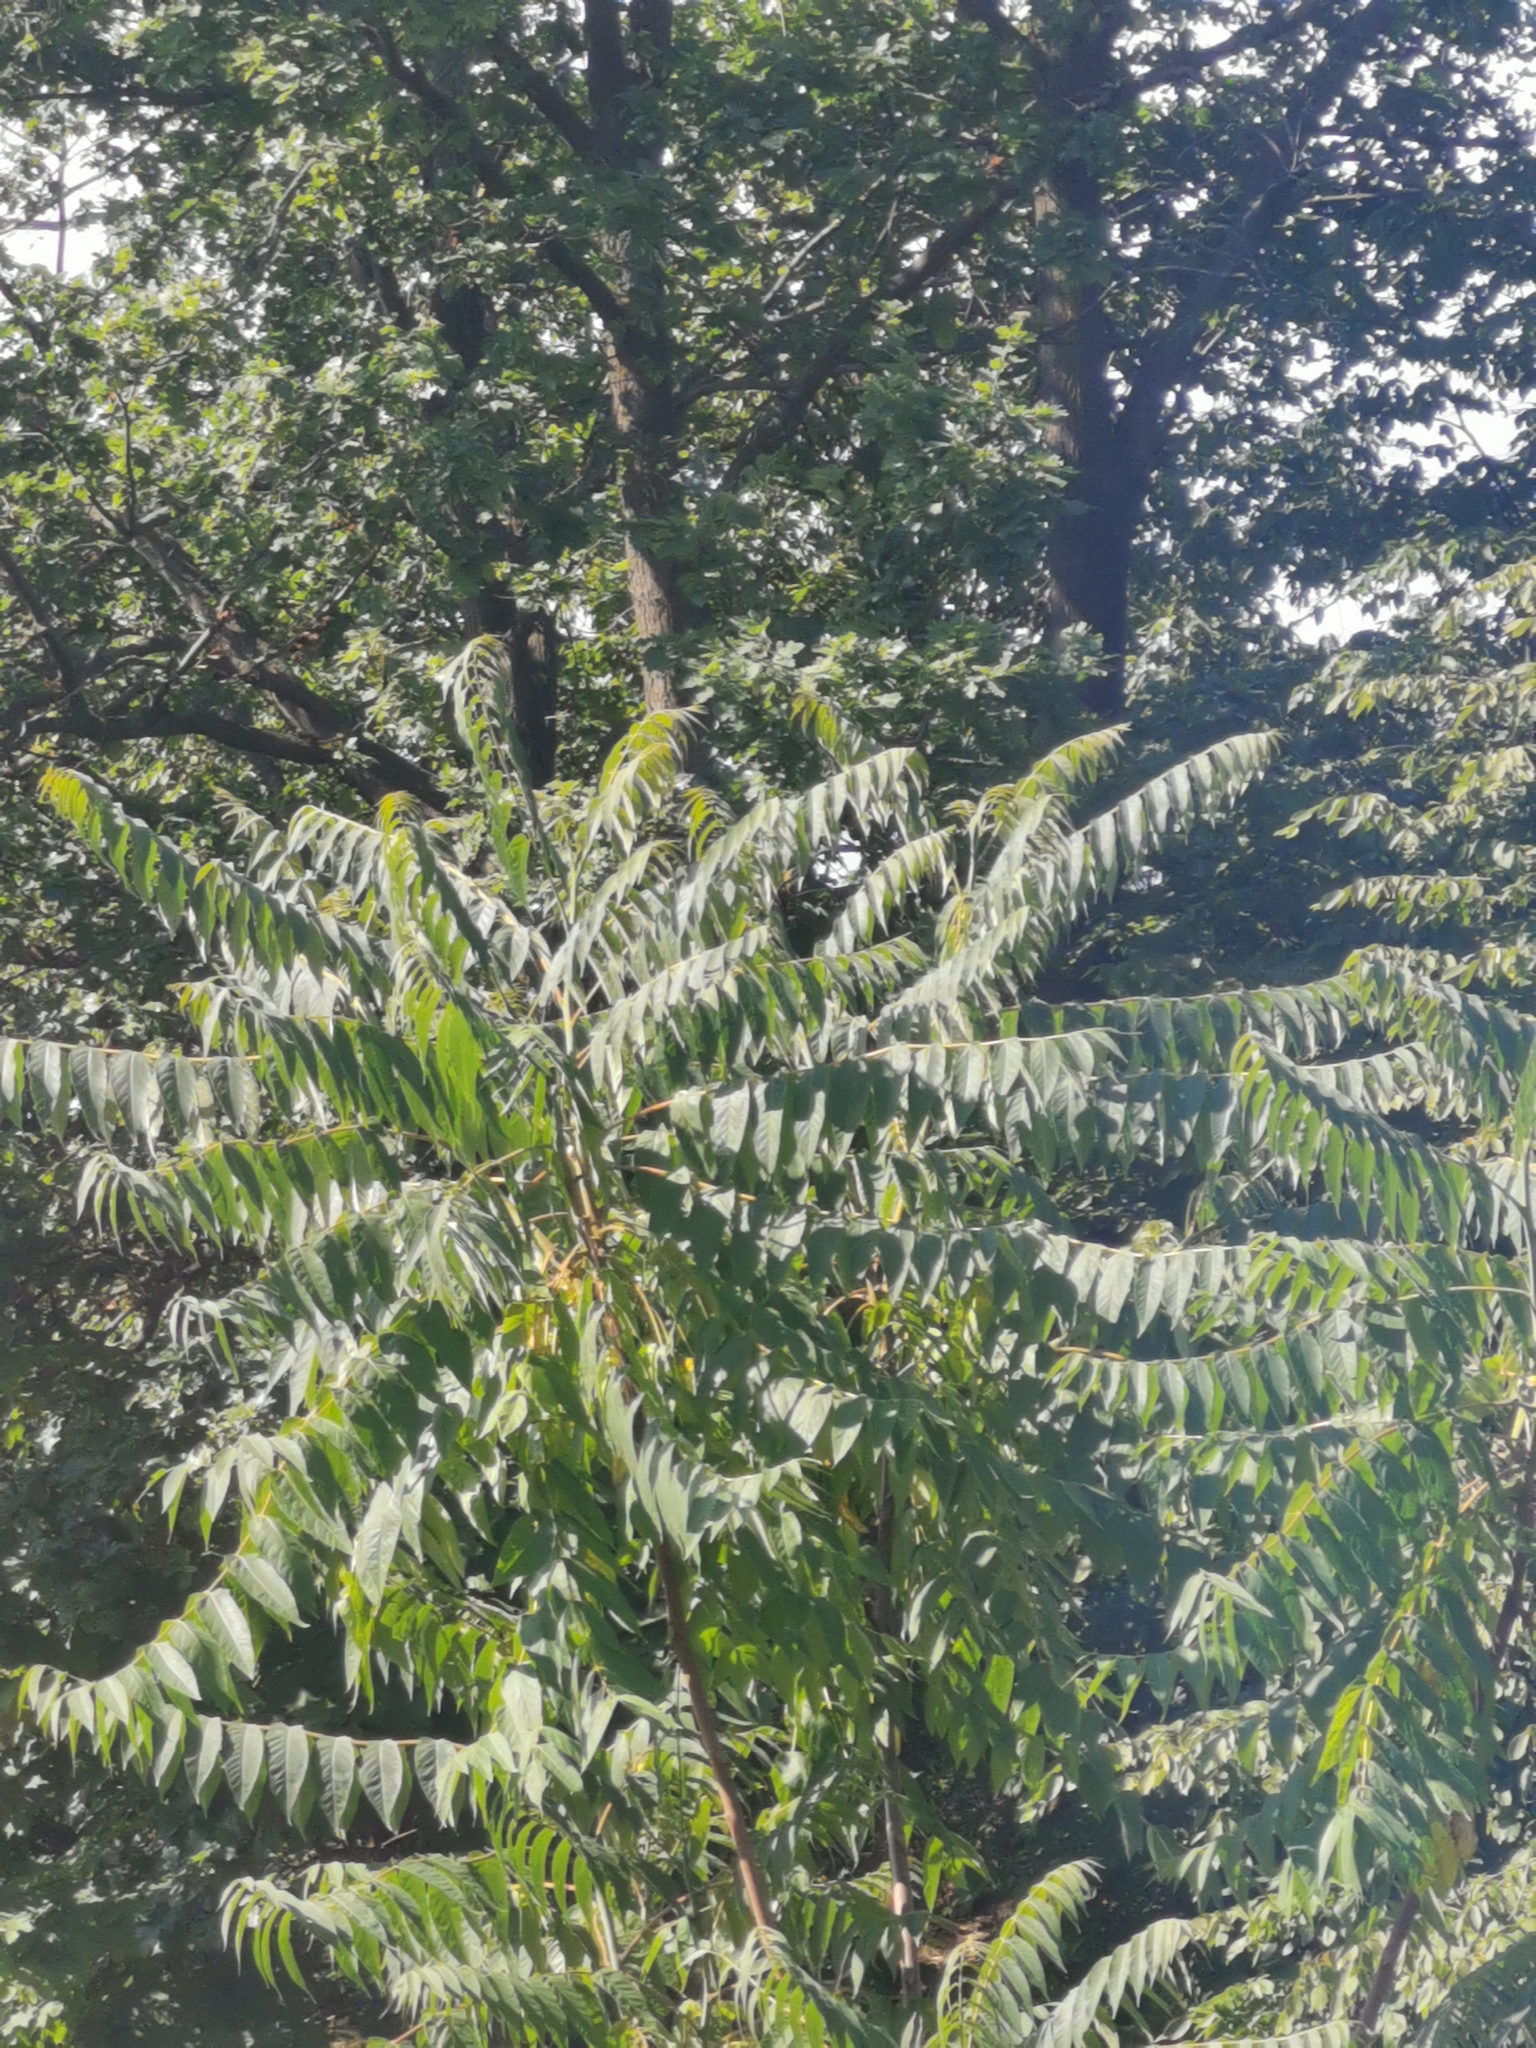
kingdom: Plantae
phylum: Tracheophyta
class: Magnoliopsida
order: Sapindales
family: Simaroubaceae
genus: Ailanthus
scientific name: Ailanthus altissima
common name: Tree-of-heaven
